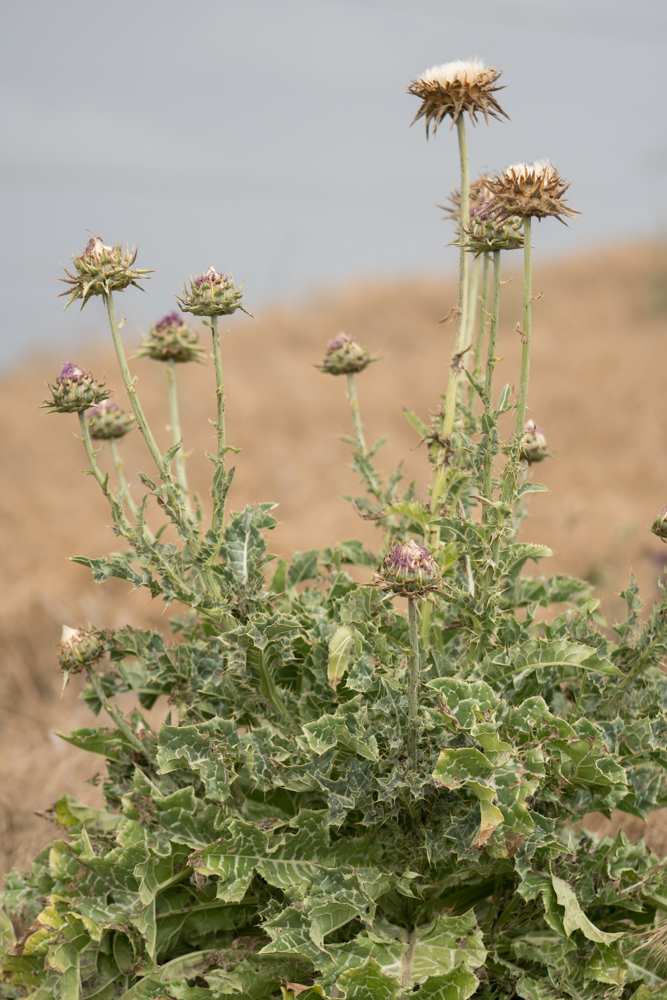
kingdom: Plantae
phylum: Tracheophyta
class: Magnoliopsida
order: Asterales
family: Asteraceae
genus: Silybum
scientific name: Silybum marianum
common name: Milk thistle
